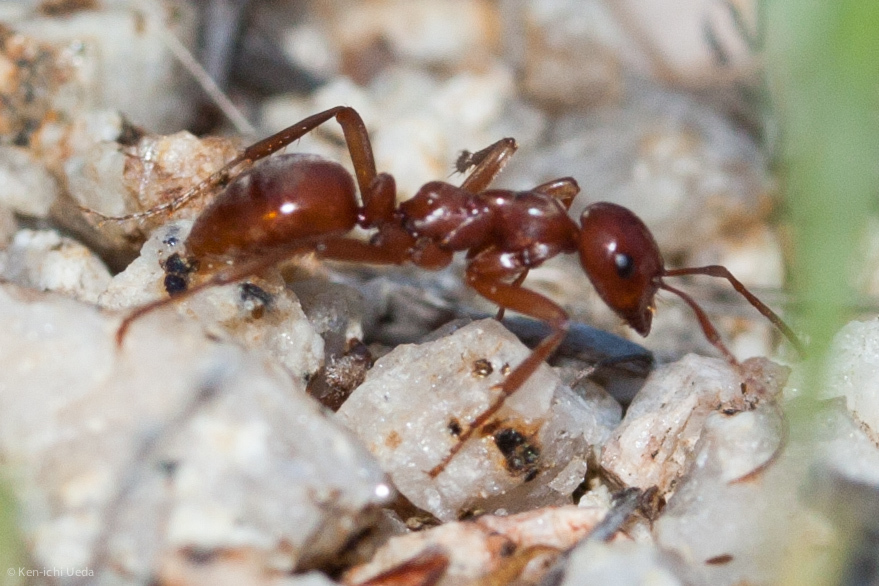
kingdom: Animalia
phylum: Arthropoda
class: Insecta
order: Hymenoptera
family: Formicidae
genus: Polyergus
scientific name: Polyergus vinosus
